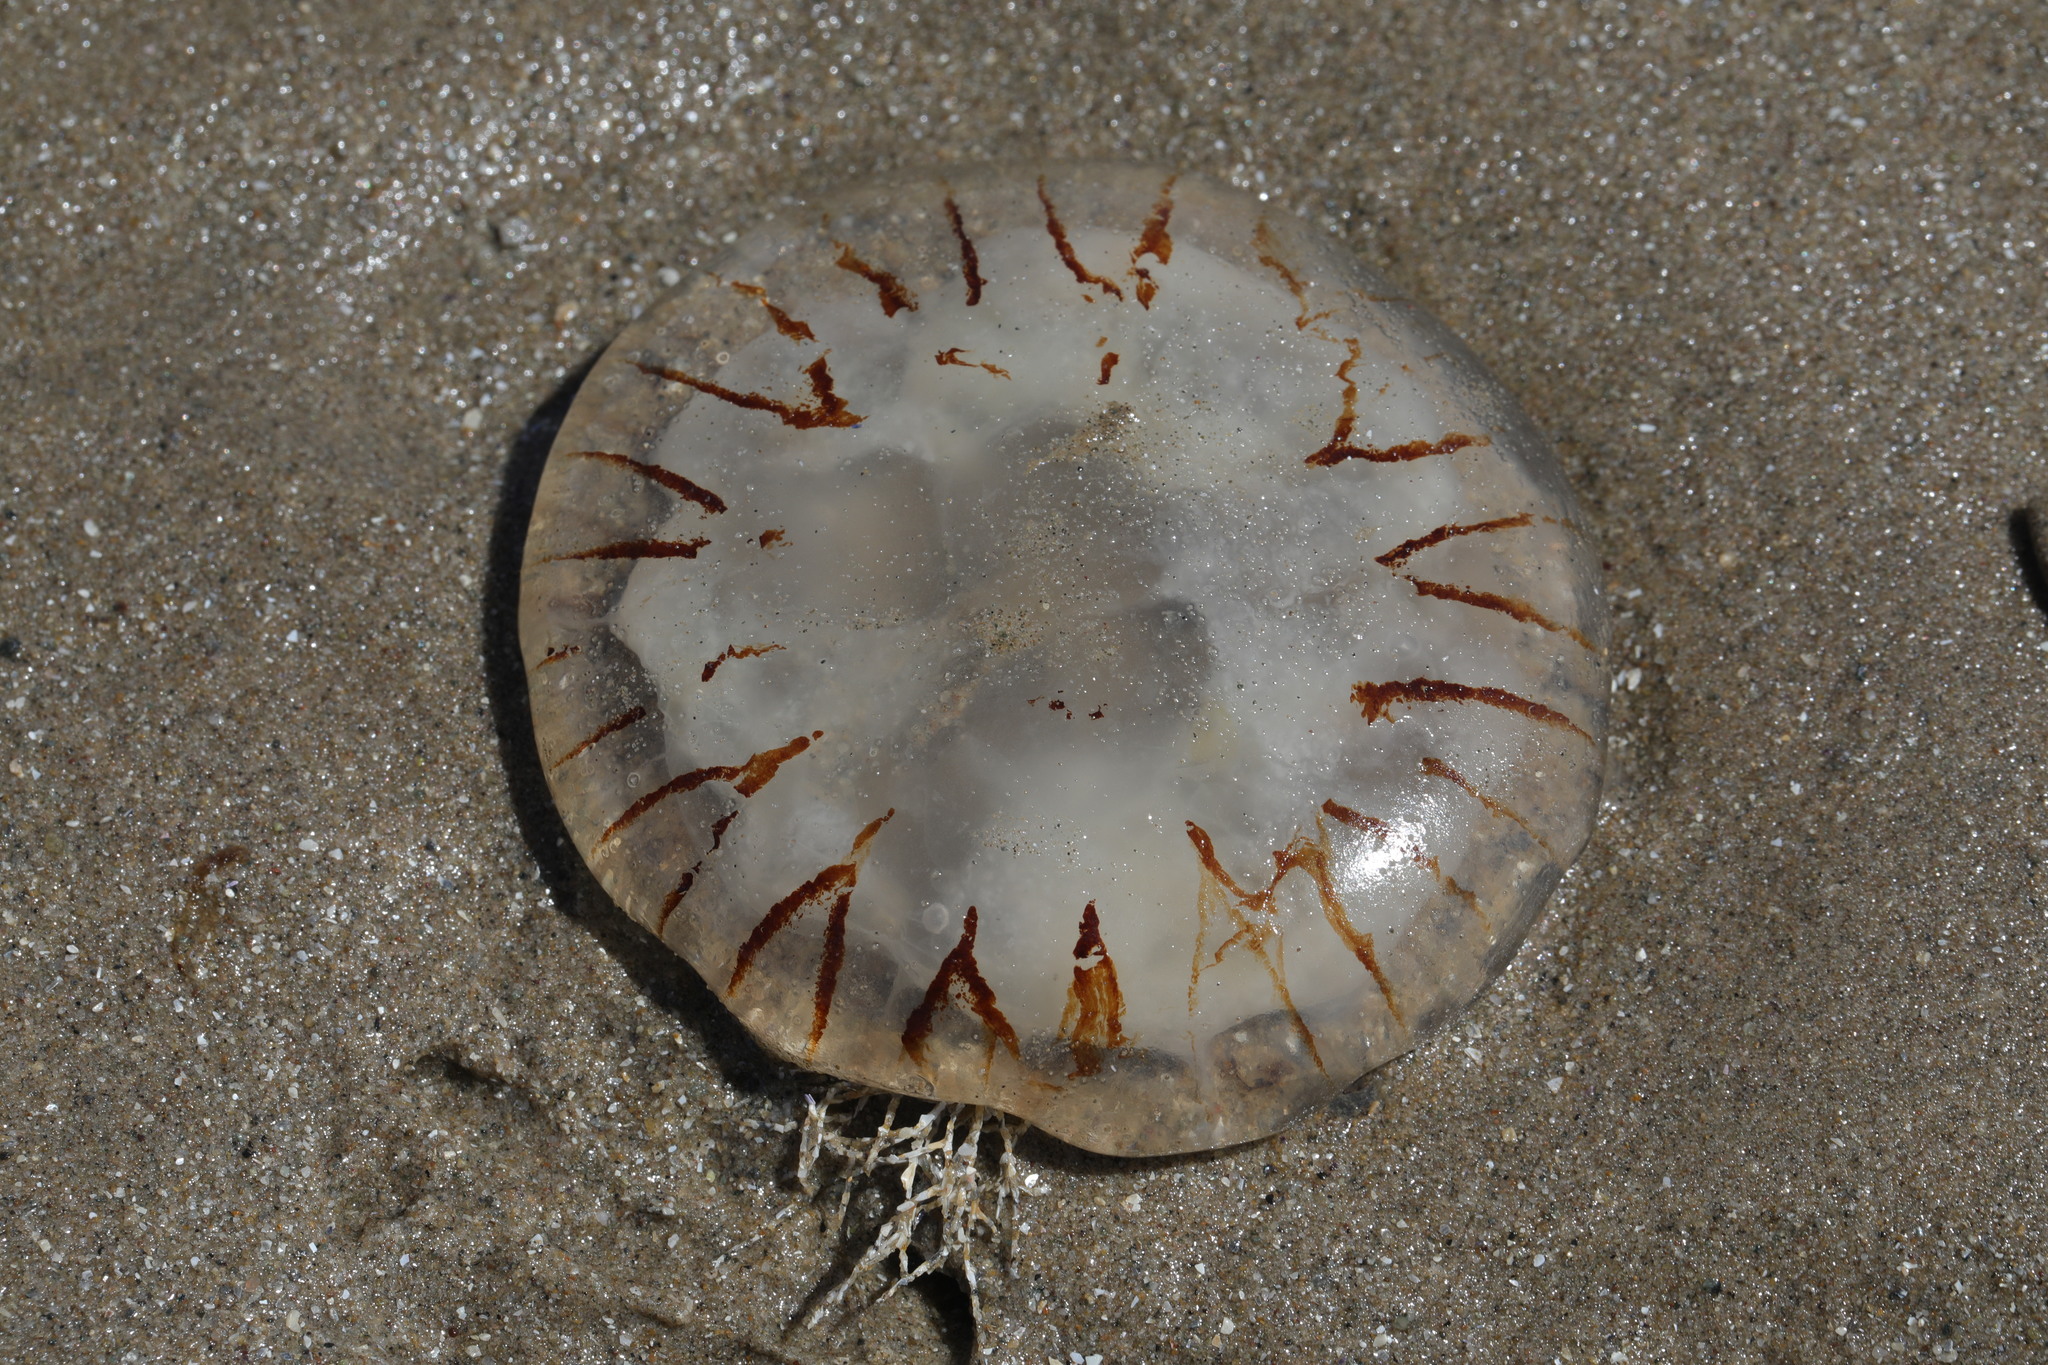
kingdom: Animalia
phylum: Cnidaria
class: Scyphozoa
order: Semaeostomeae
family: Pelagiidae
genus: Chrysaora
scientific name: Chrysaora hysoscella
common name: Compass jellyfish
